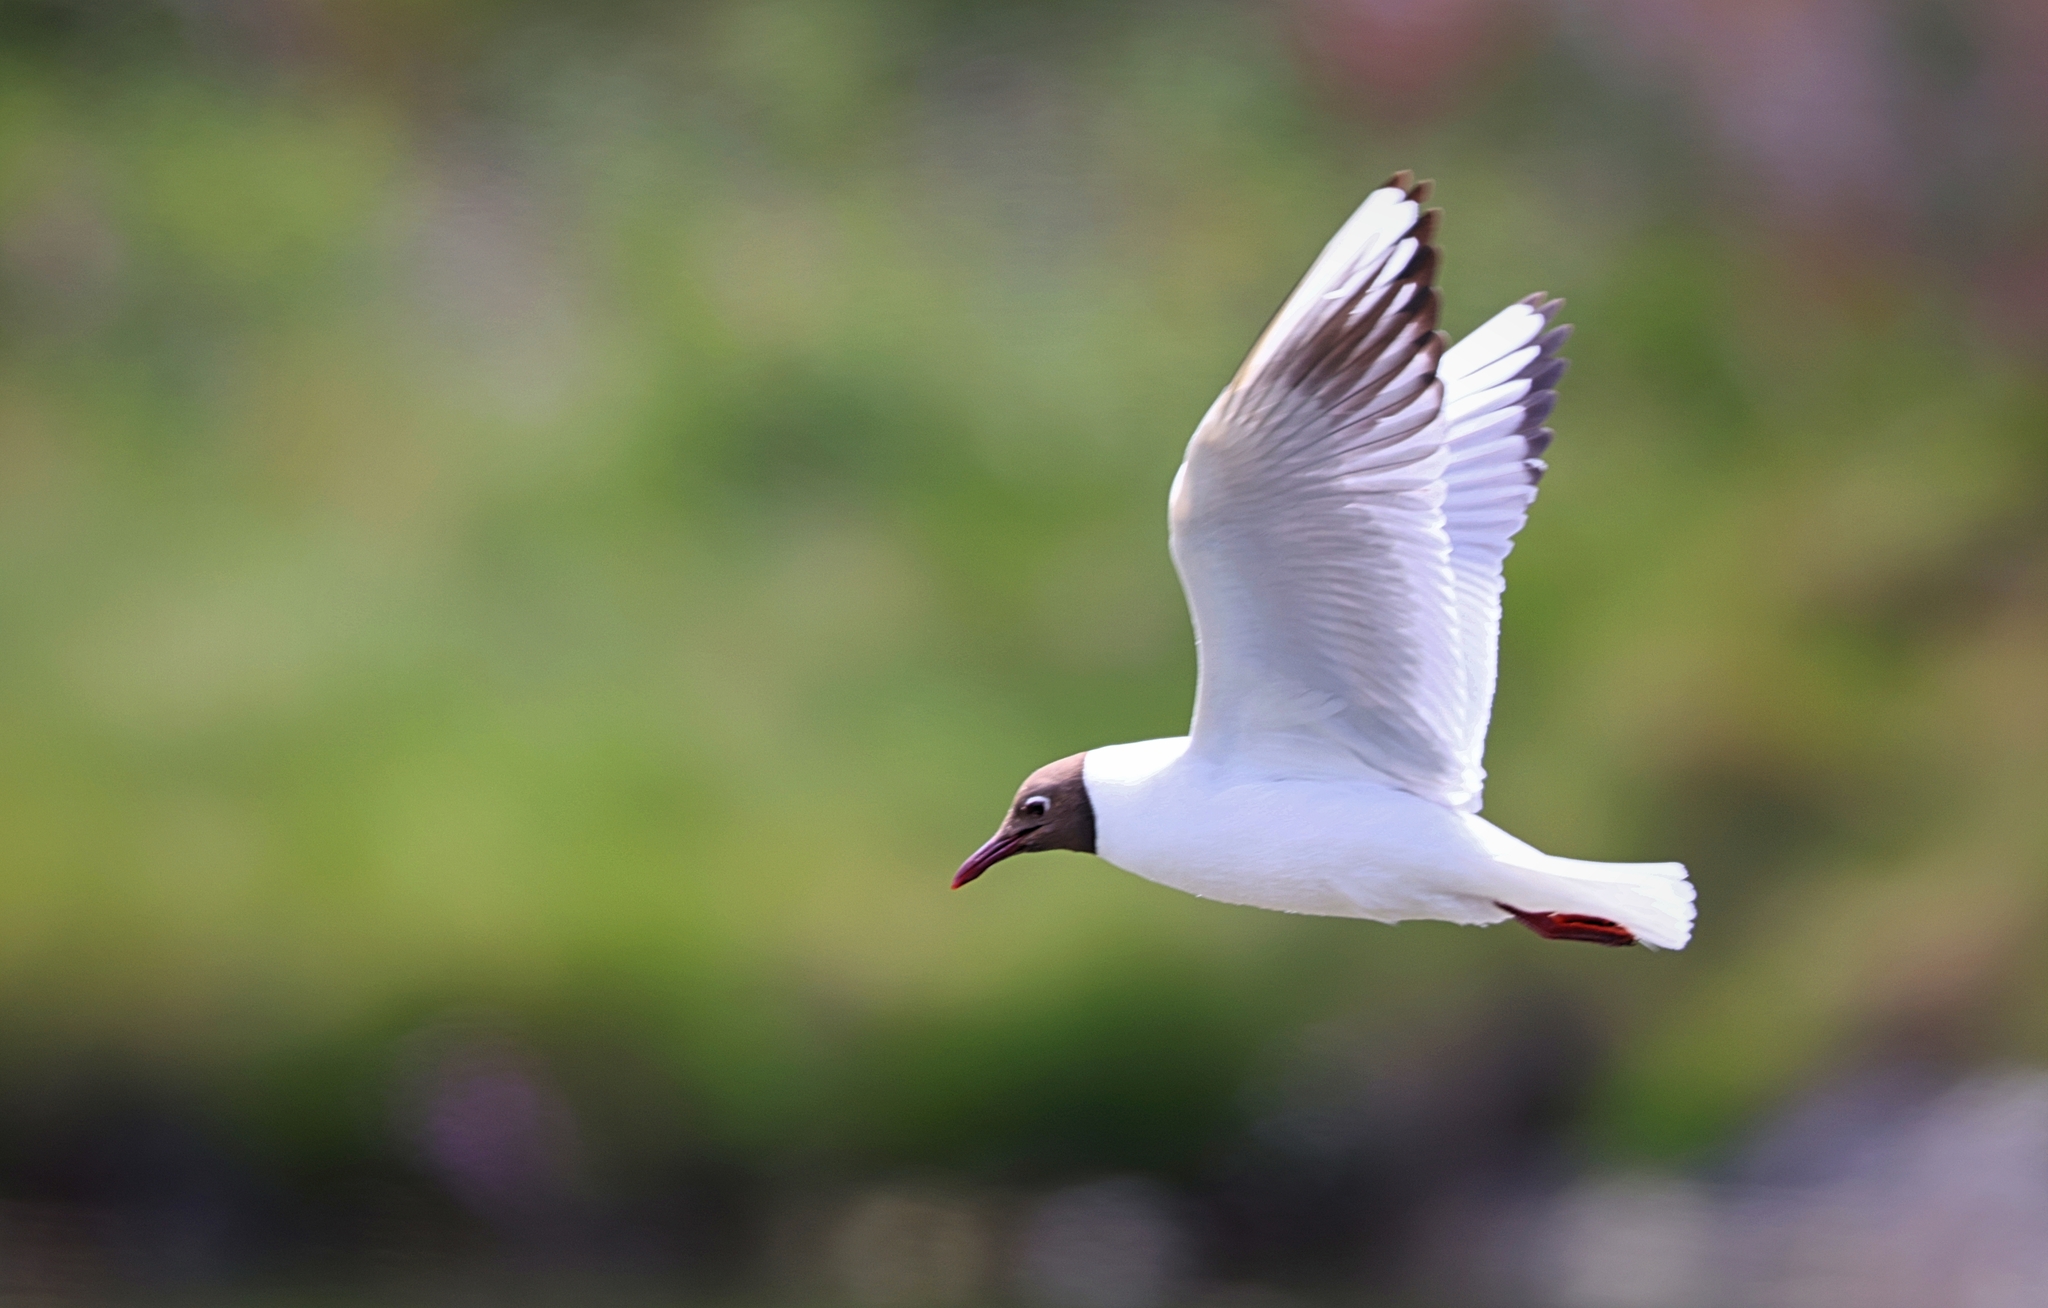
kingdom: Animalia
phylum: Chordata
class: Aves
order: Charadriiformes
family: Laridae
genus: Chroicocephalus
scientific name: Chroicocephalus ridibundus
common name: Black-headed gull
